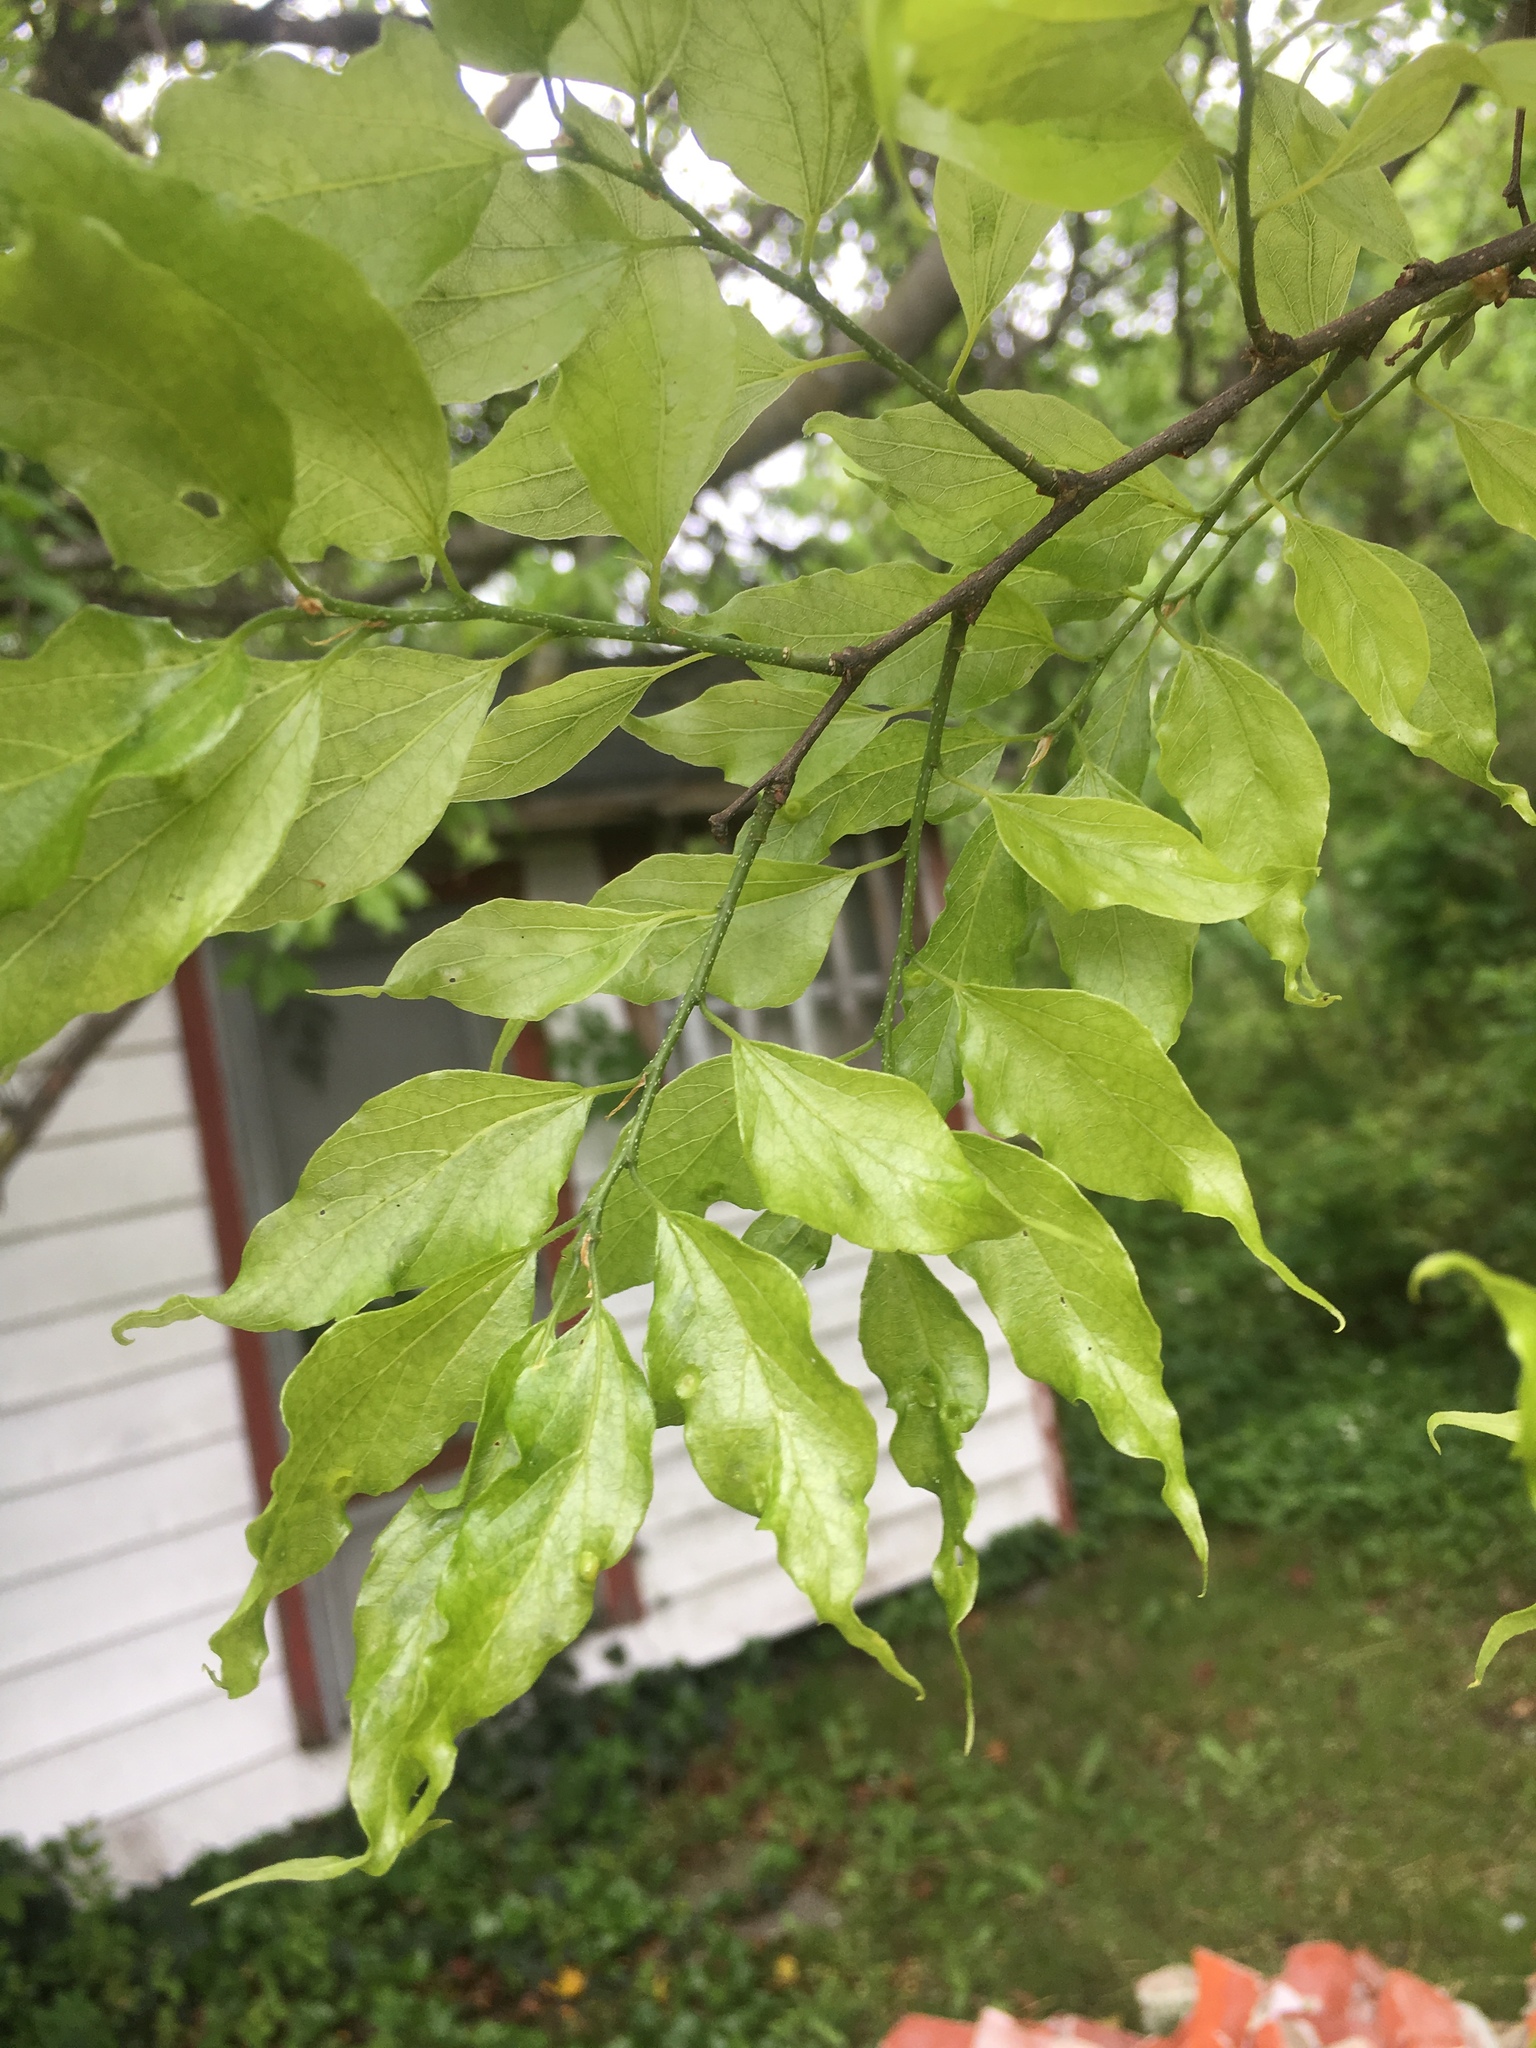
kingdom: Plantae
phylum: Tracheophyta
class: Magnoliopsida
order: Rosales
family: Cannabaceae
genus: Celtis
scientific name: Celtis laevigata
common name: Sugarberry
